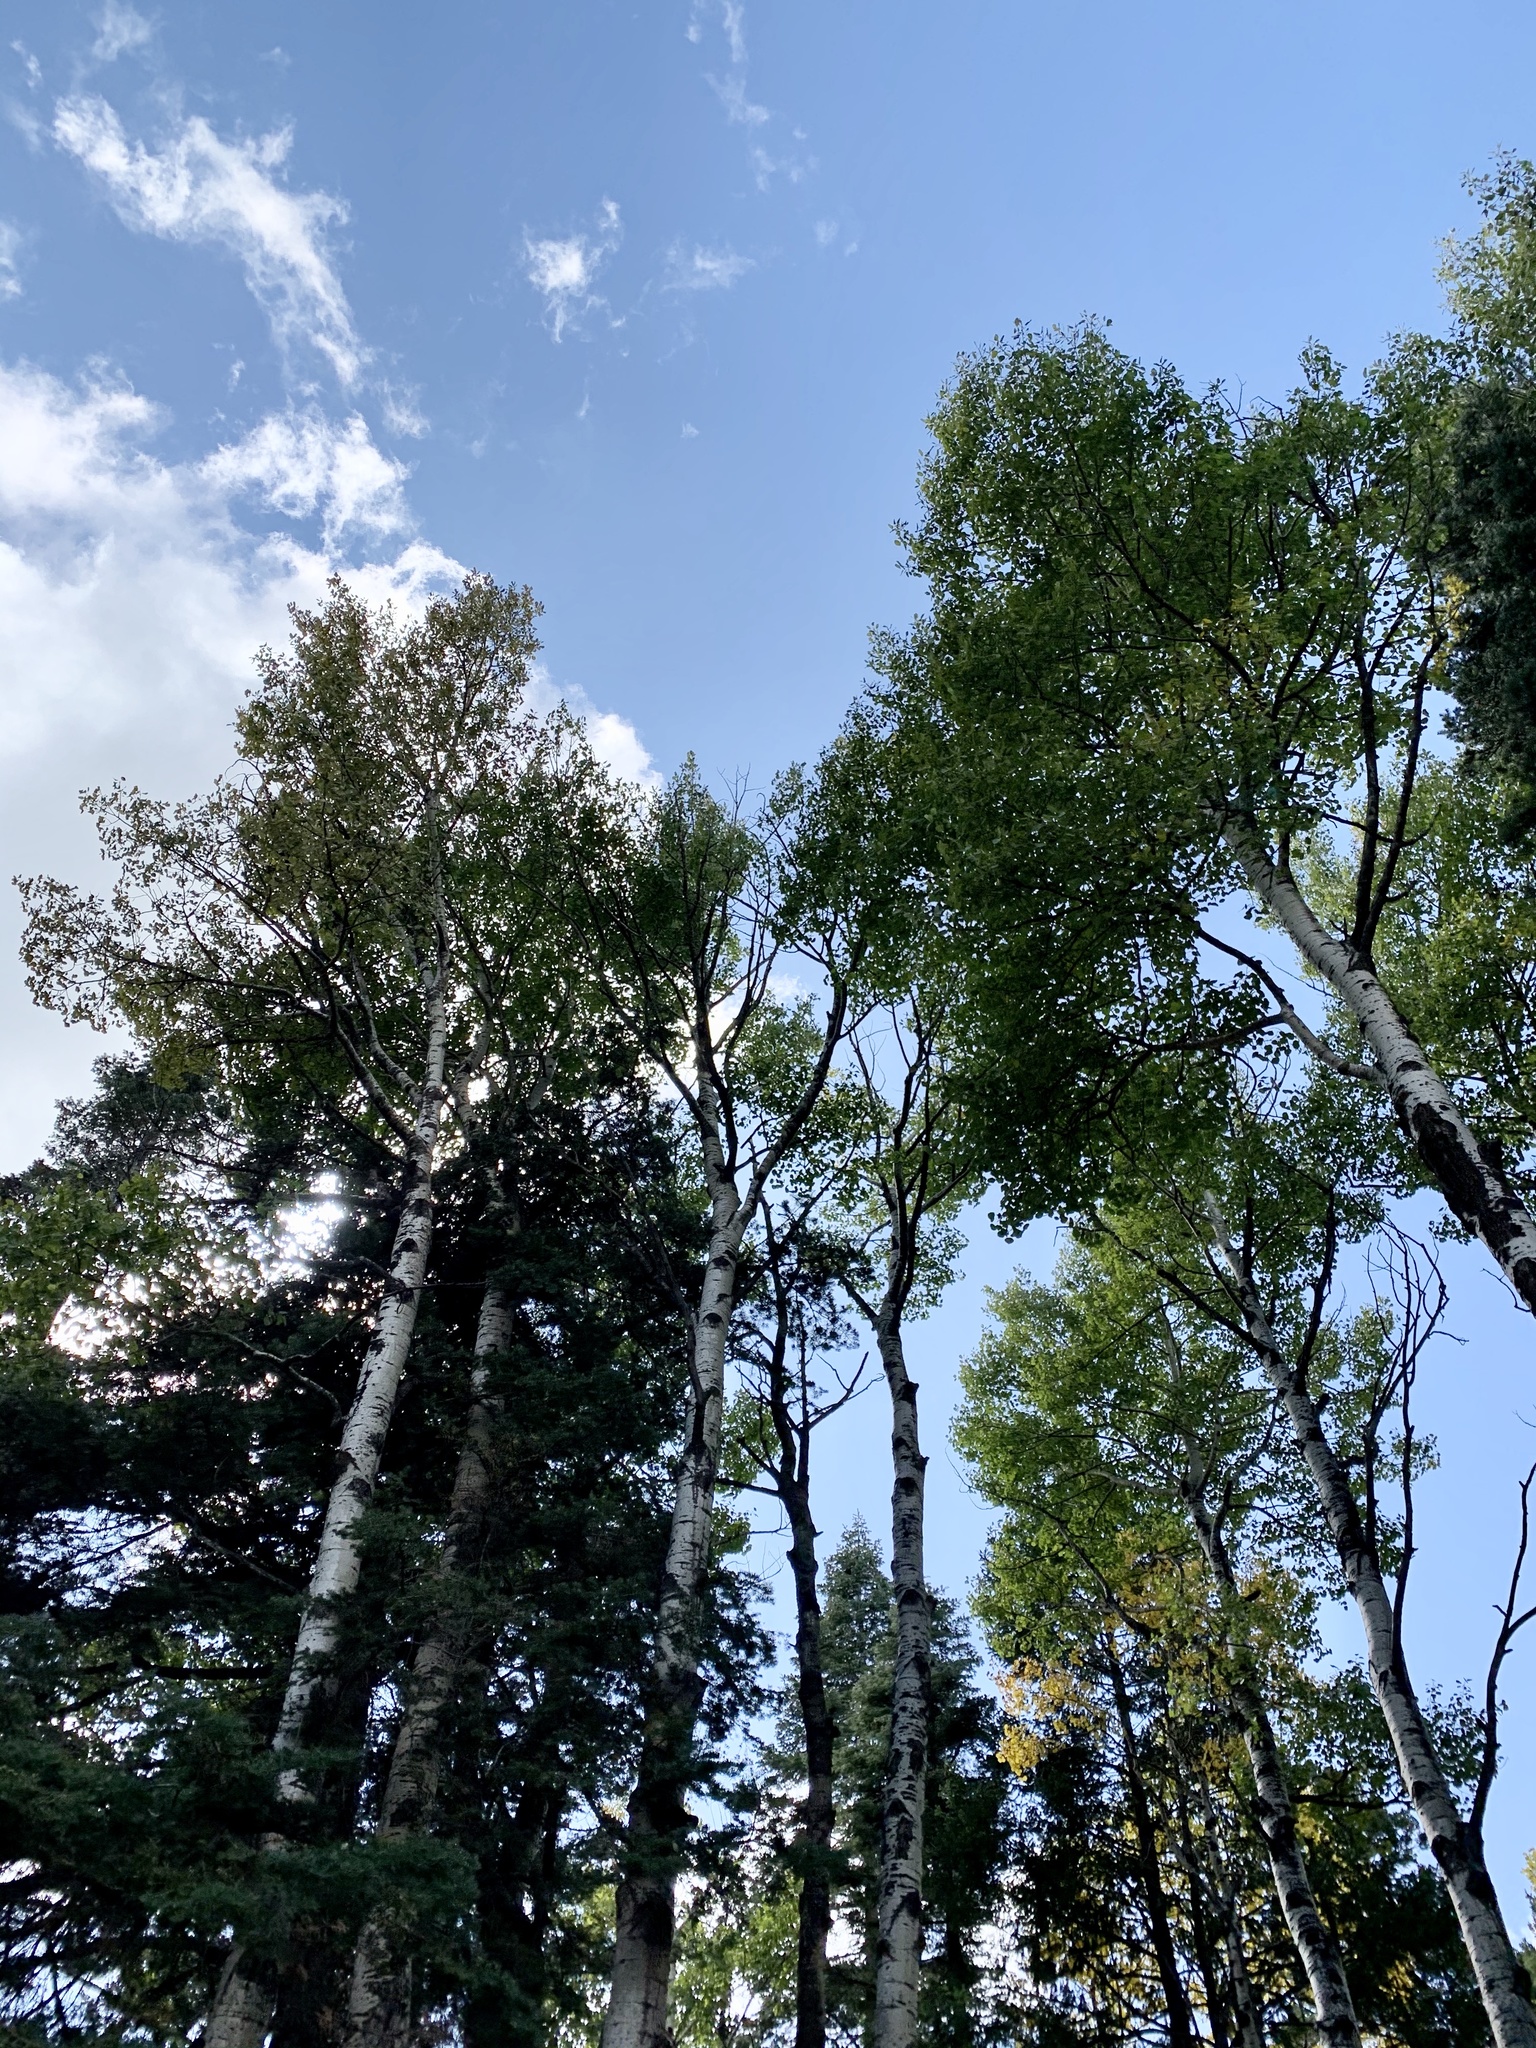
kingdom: Plantae
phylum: Tracheophyta
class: Magnoliopsida
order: Malpighiales
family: Salicaceae
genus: Populus
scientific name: Populus tremuloides
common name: Quaking aspen
